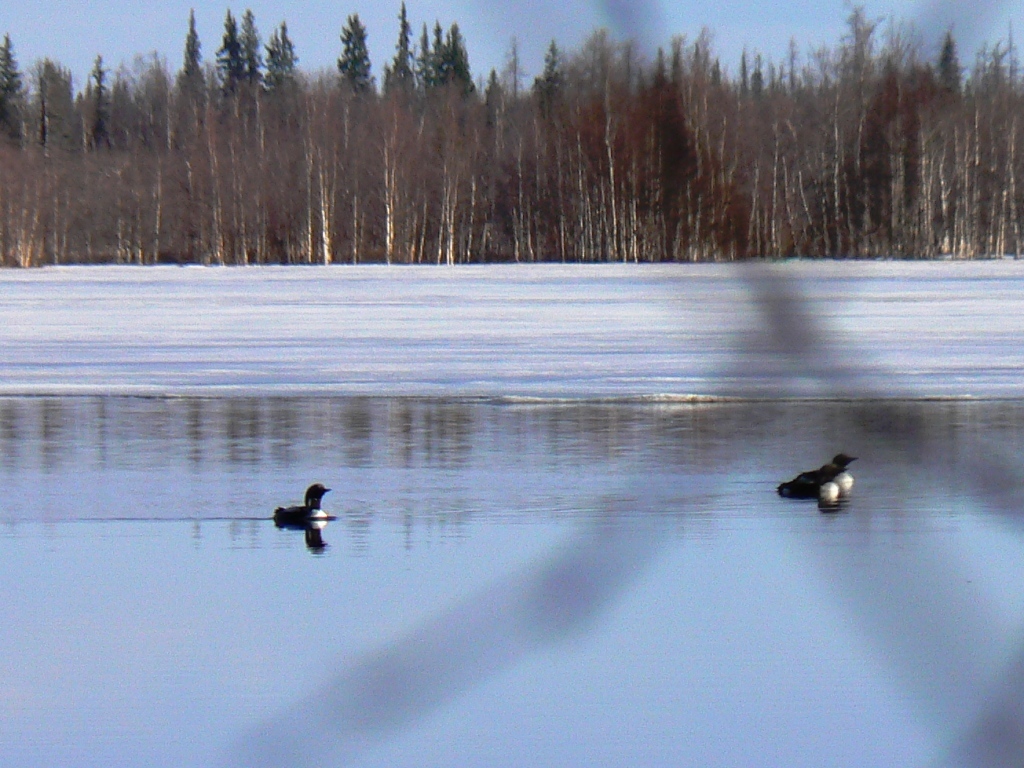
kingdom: Animalia
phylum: Chordata
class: Aves
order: Gaviiformes
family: Gaviidae
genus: Gavia
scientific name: Gavia arctica
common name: Black-throated loon
